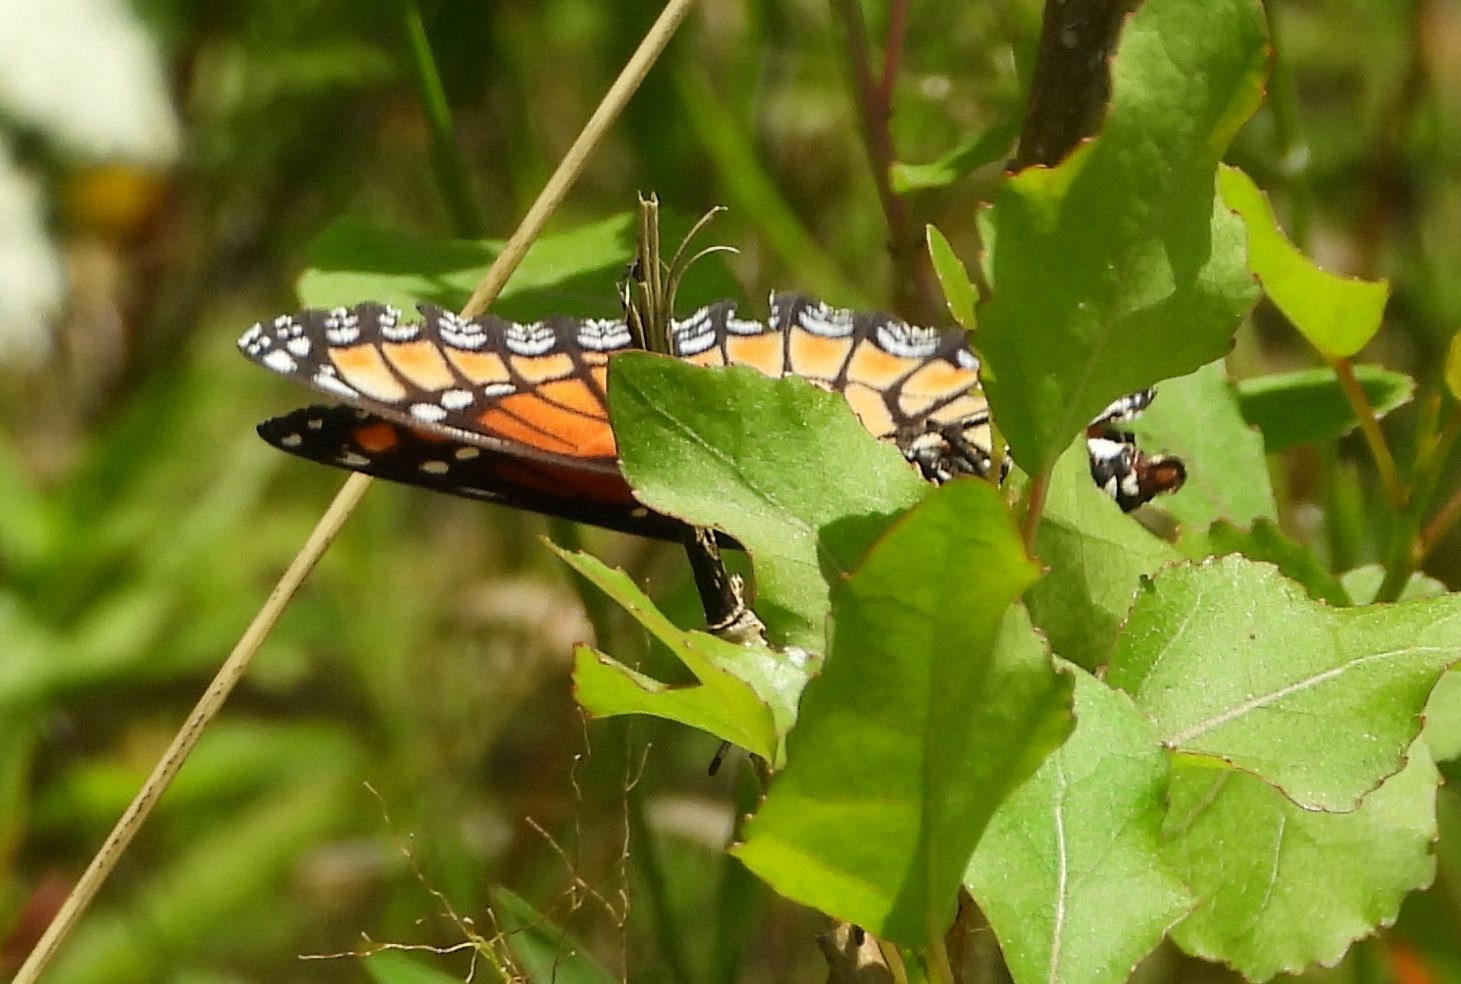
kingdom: Animalia
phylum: Arthropoda
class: Insecta
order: Lepidoptera
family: Nymphalidae
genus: Limenitis
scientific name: Limenitis archippus
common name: Viceroy
